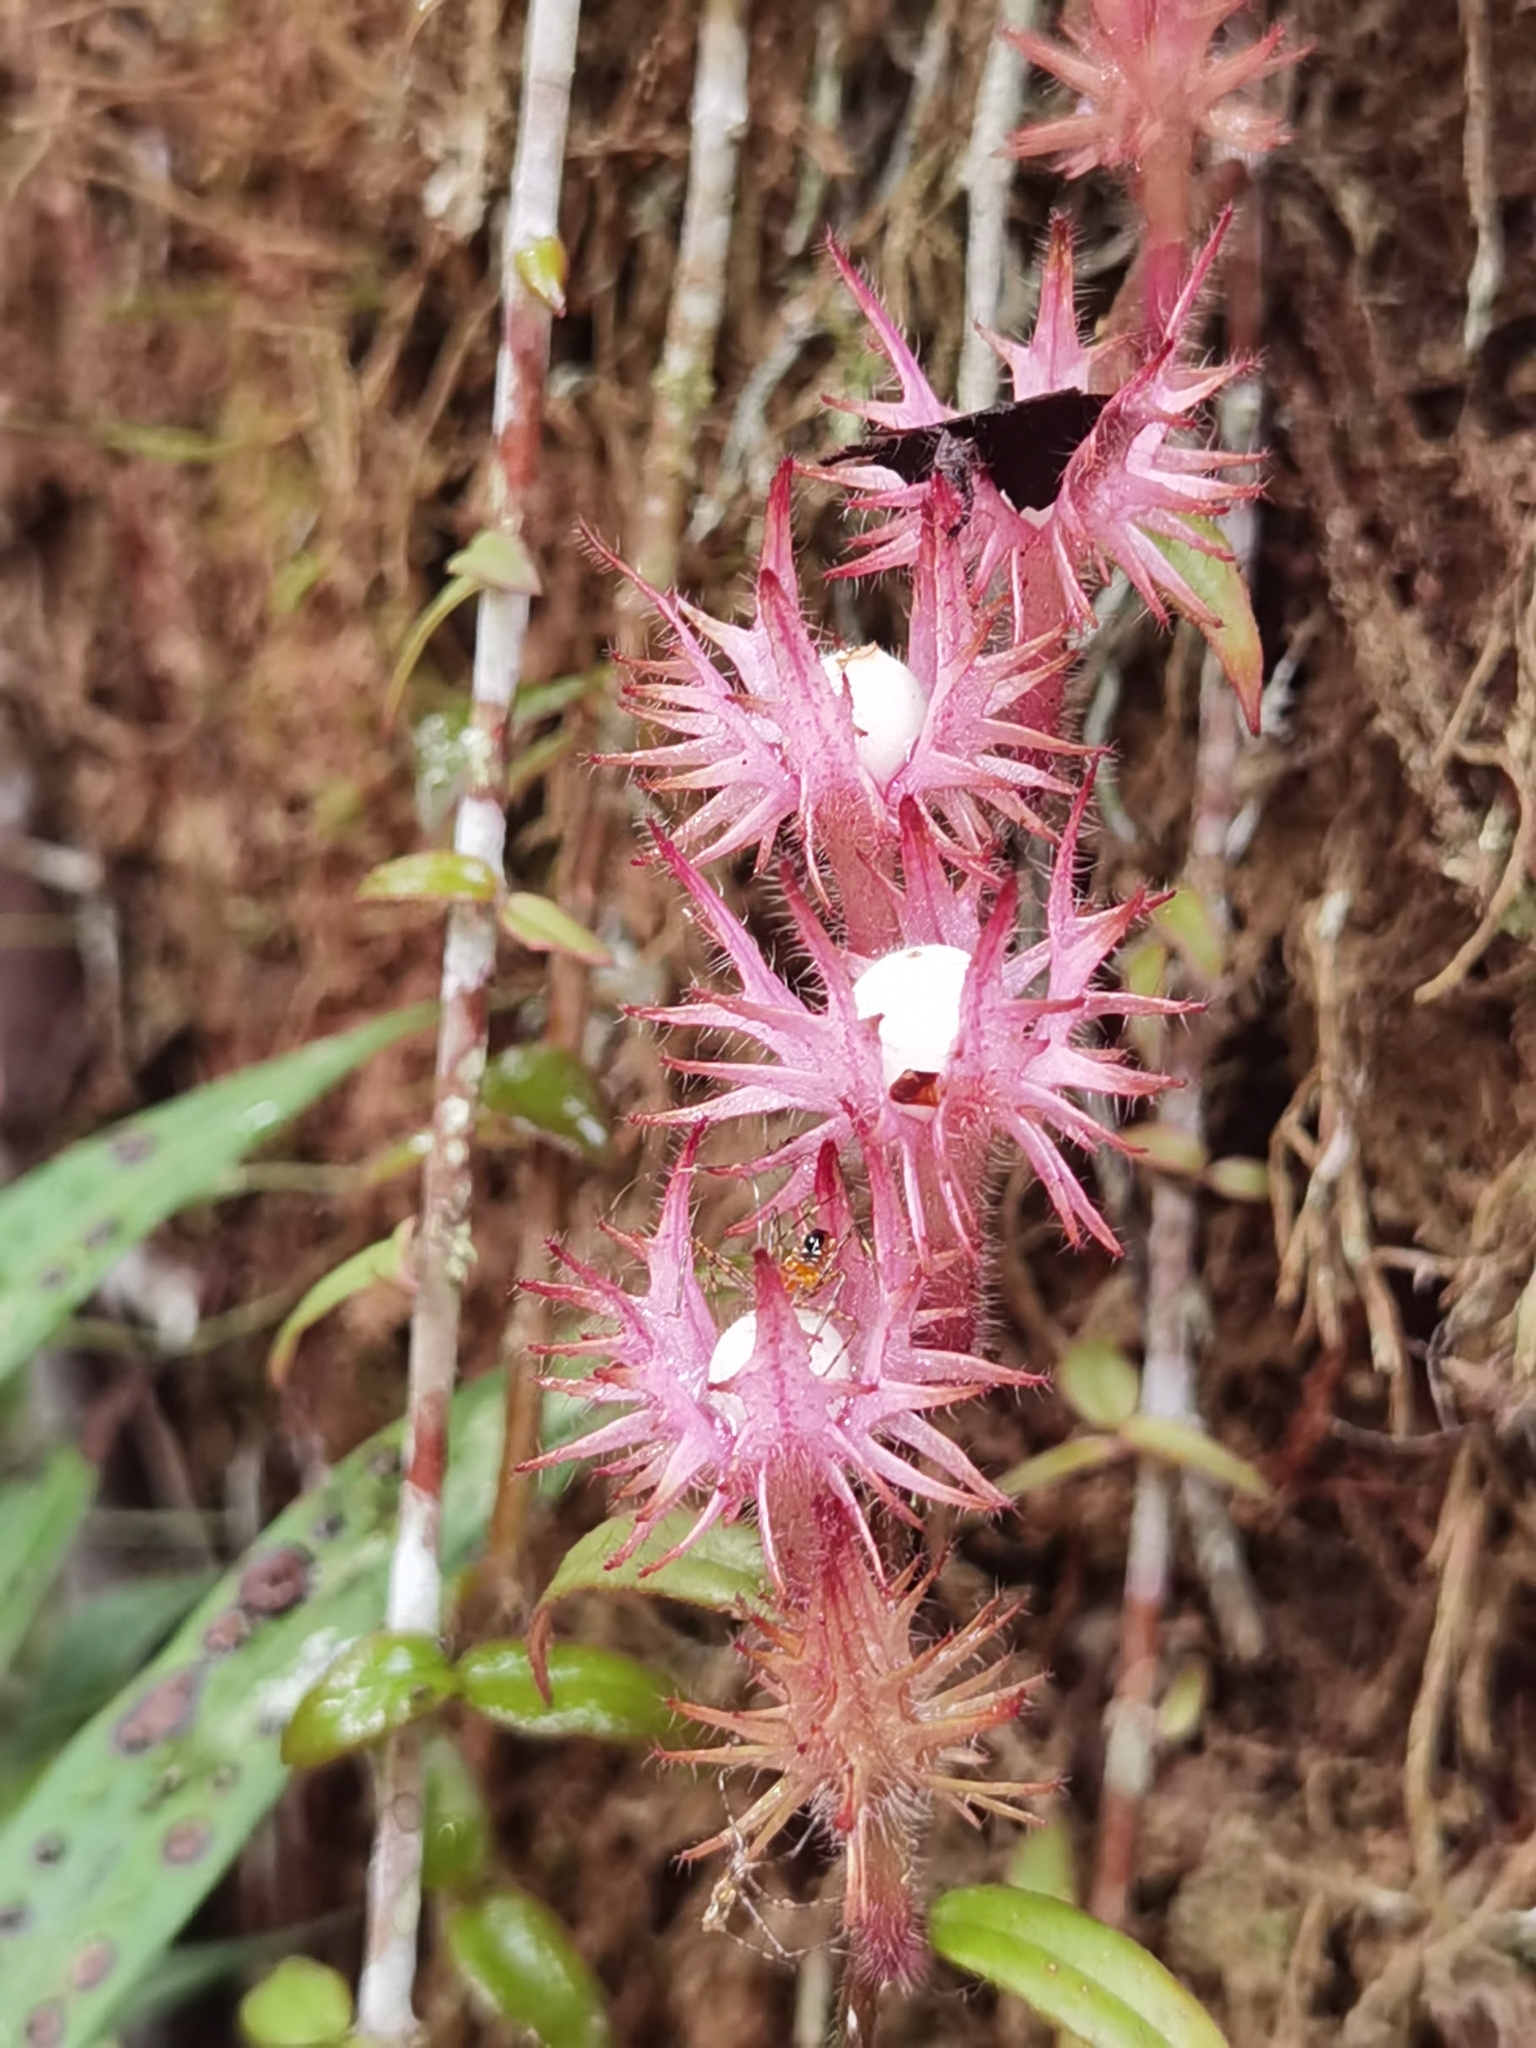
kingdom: Plantae
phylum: Tracheophyta
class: Magnoliopsida
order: Lamiales
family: Gesneriaceae
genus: Columnea
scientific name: Columnea flaccida
